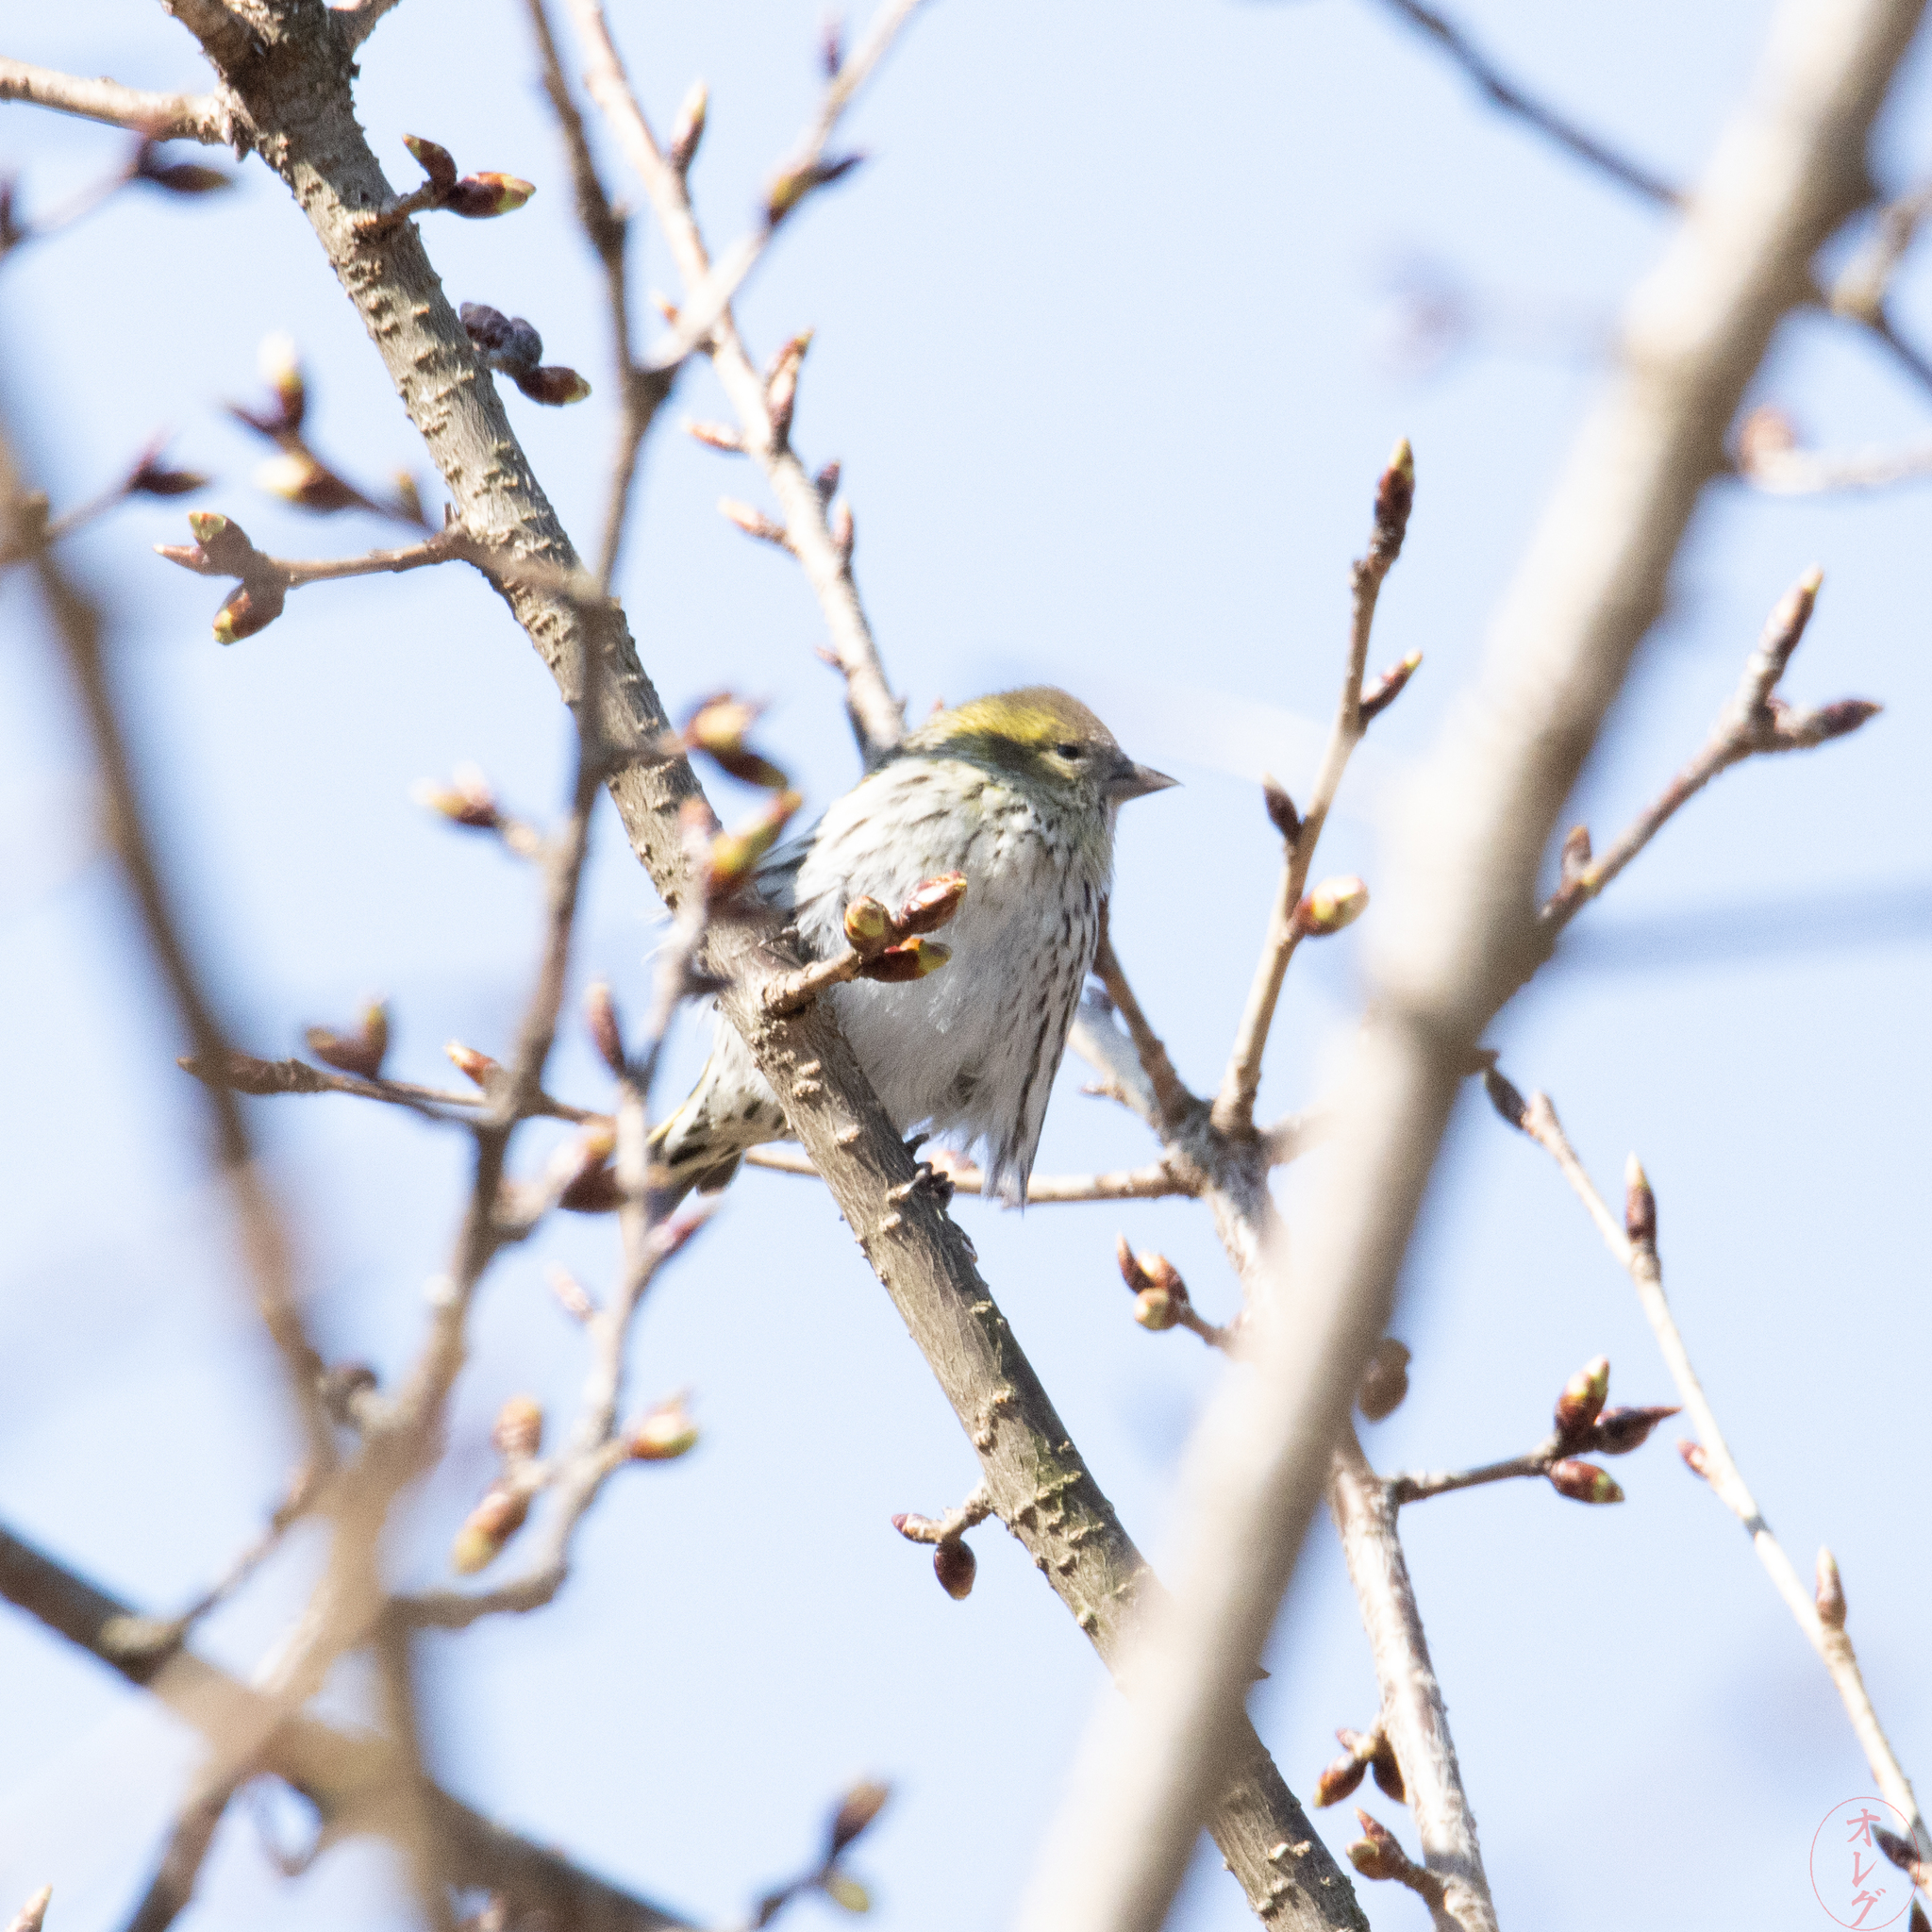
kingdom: Animalia
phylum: Chordata
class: Aves
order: Passeriformes
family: Fringillidae
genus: Spinus
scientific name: Spinus spinus
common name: Eurasian siskin
